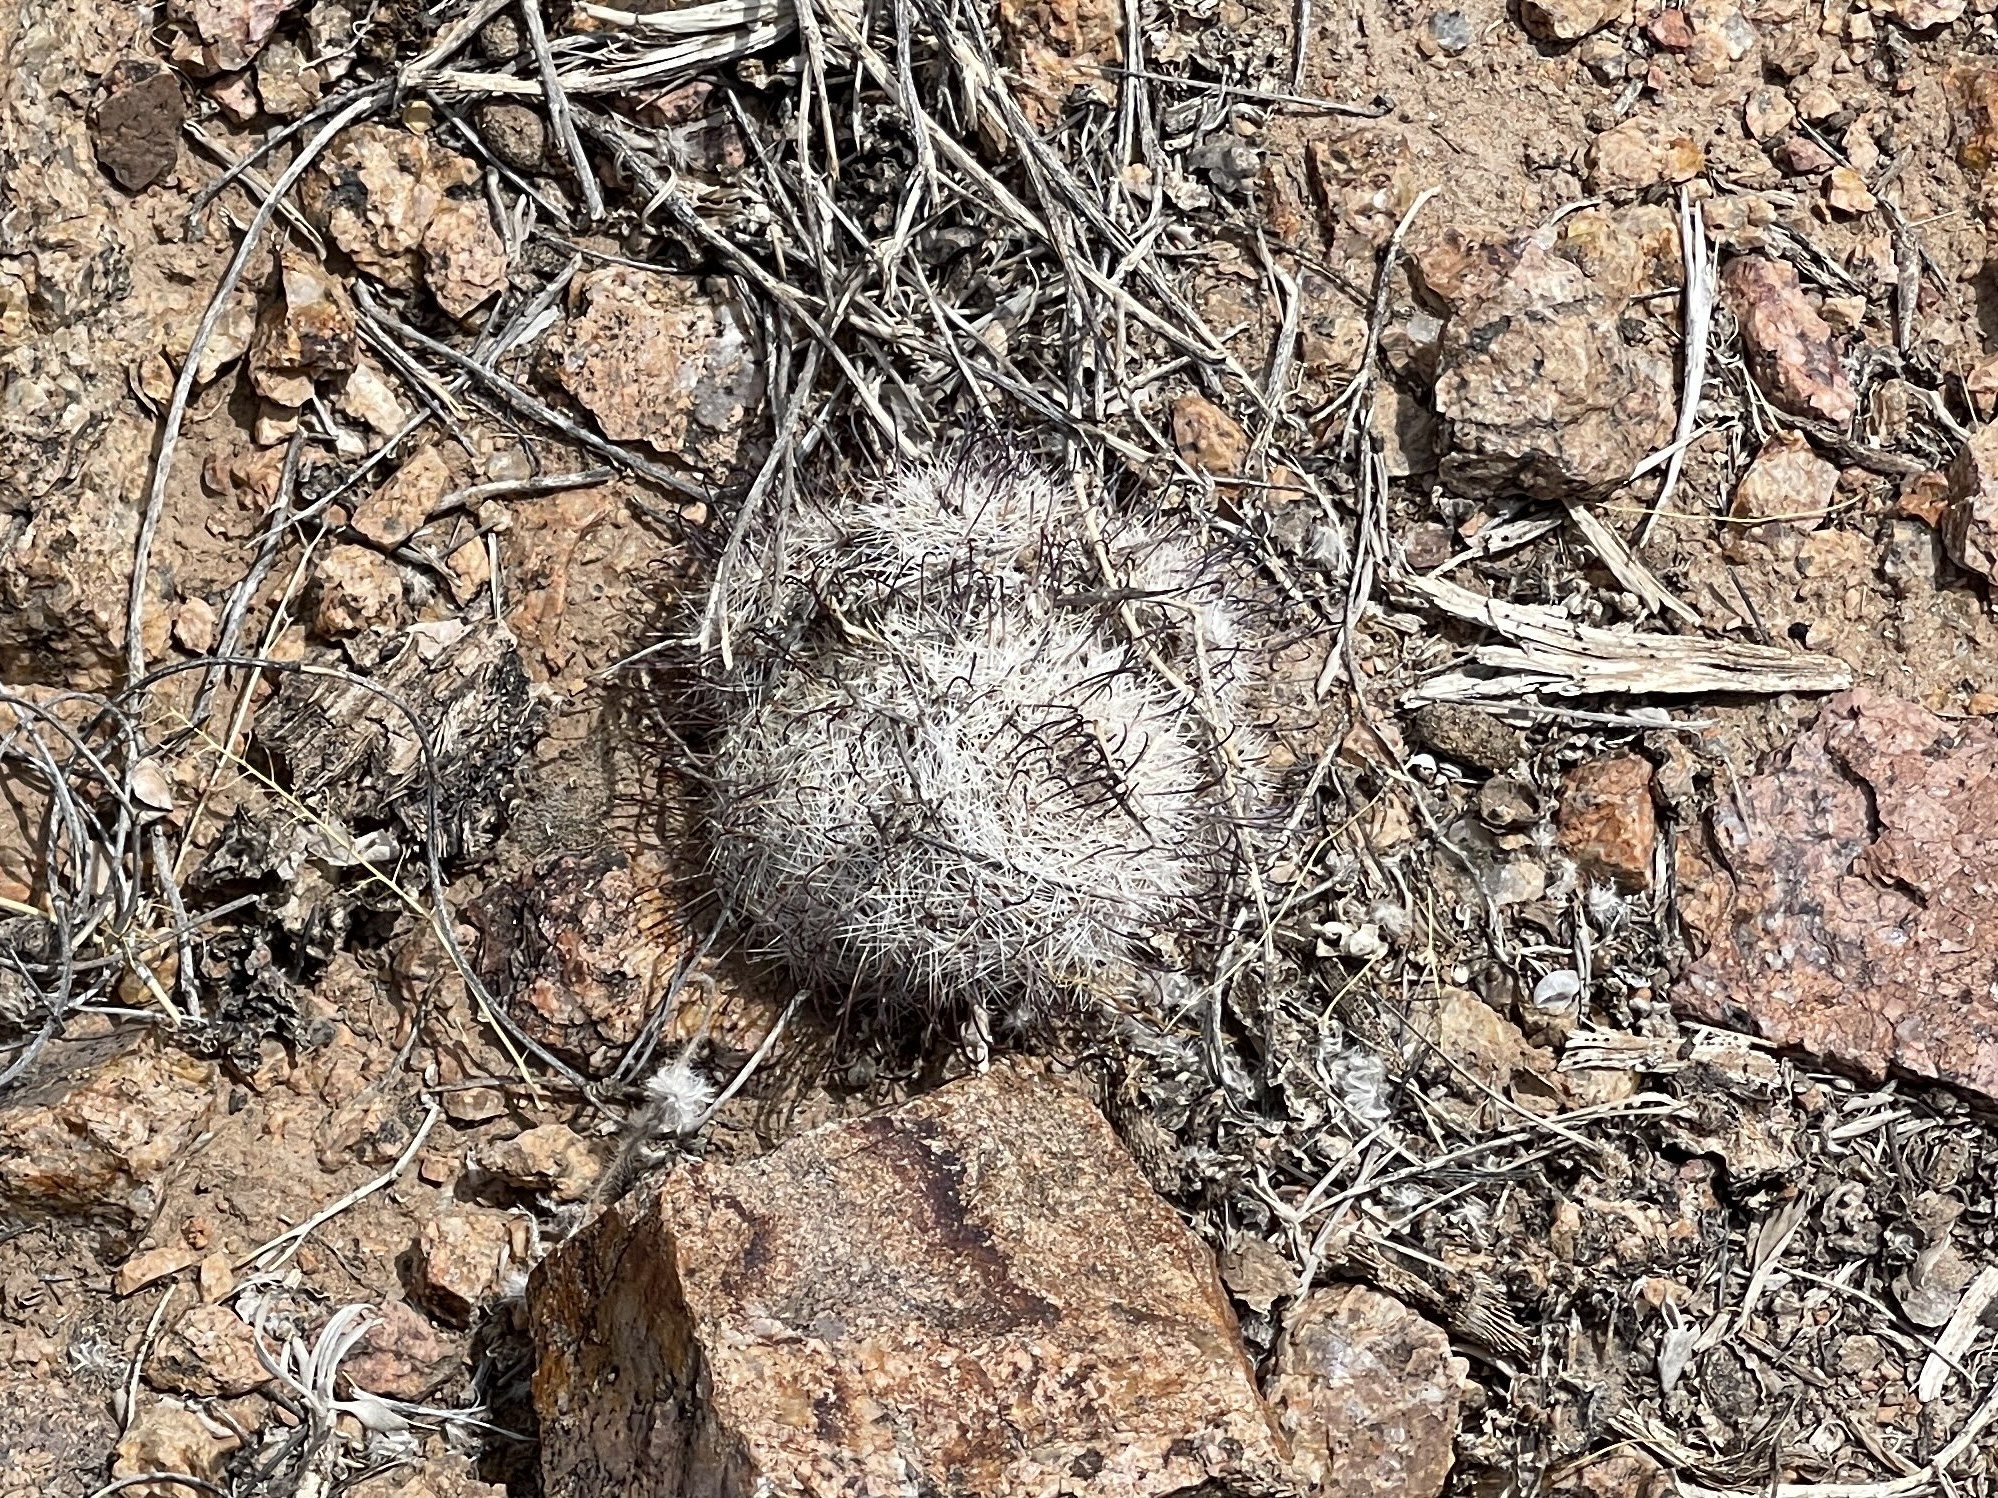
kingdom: Plantae
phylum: Tracheophyta
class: Magnoliopsida
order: Caryophyllales
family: Cactaceae
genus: Cochemiea
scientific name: Cochemiea grahamii
